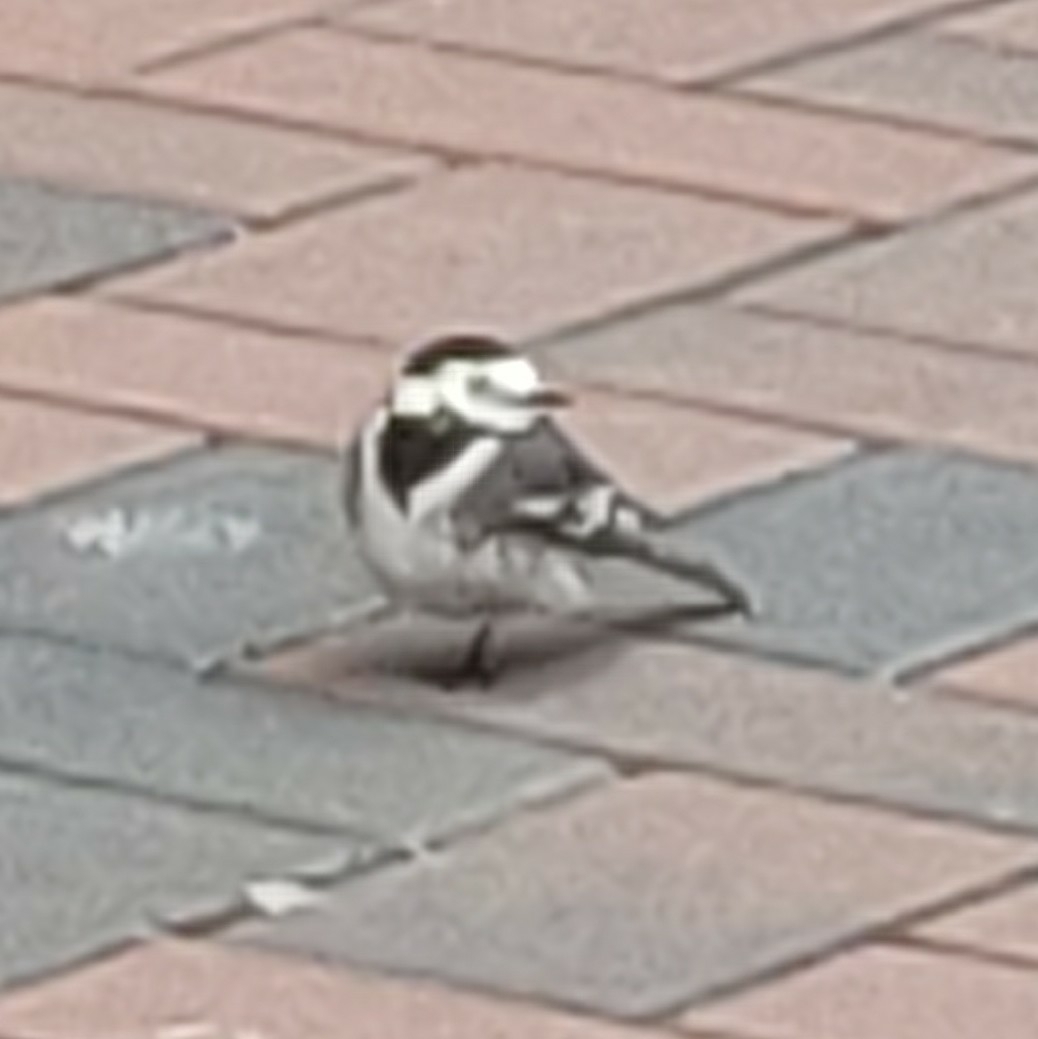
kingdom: Animalia
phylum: Chordata
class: Aves
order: Passeriformes
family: Motacillidae
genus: Motacilla
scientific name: Motacilla alba
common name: White wagtail
